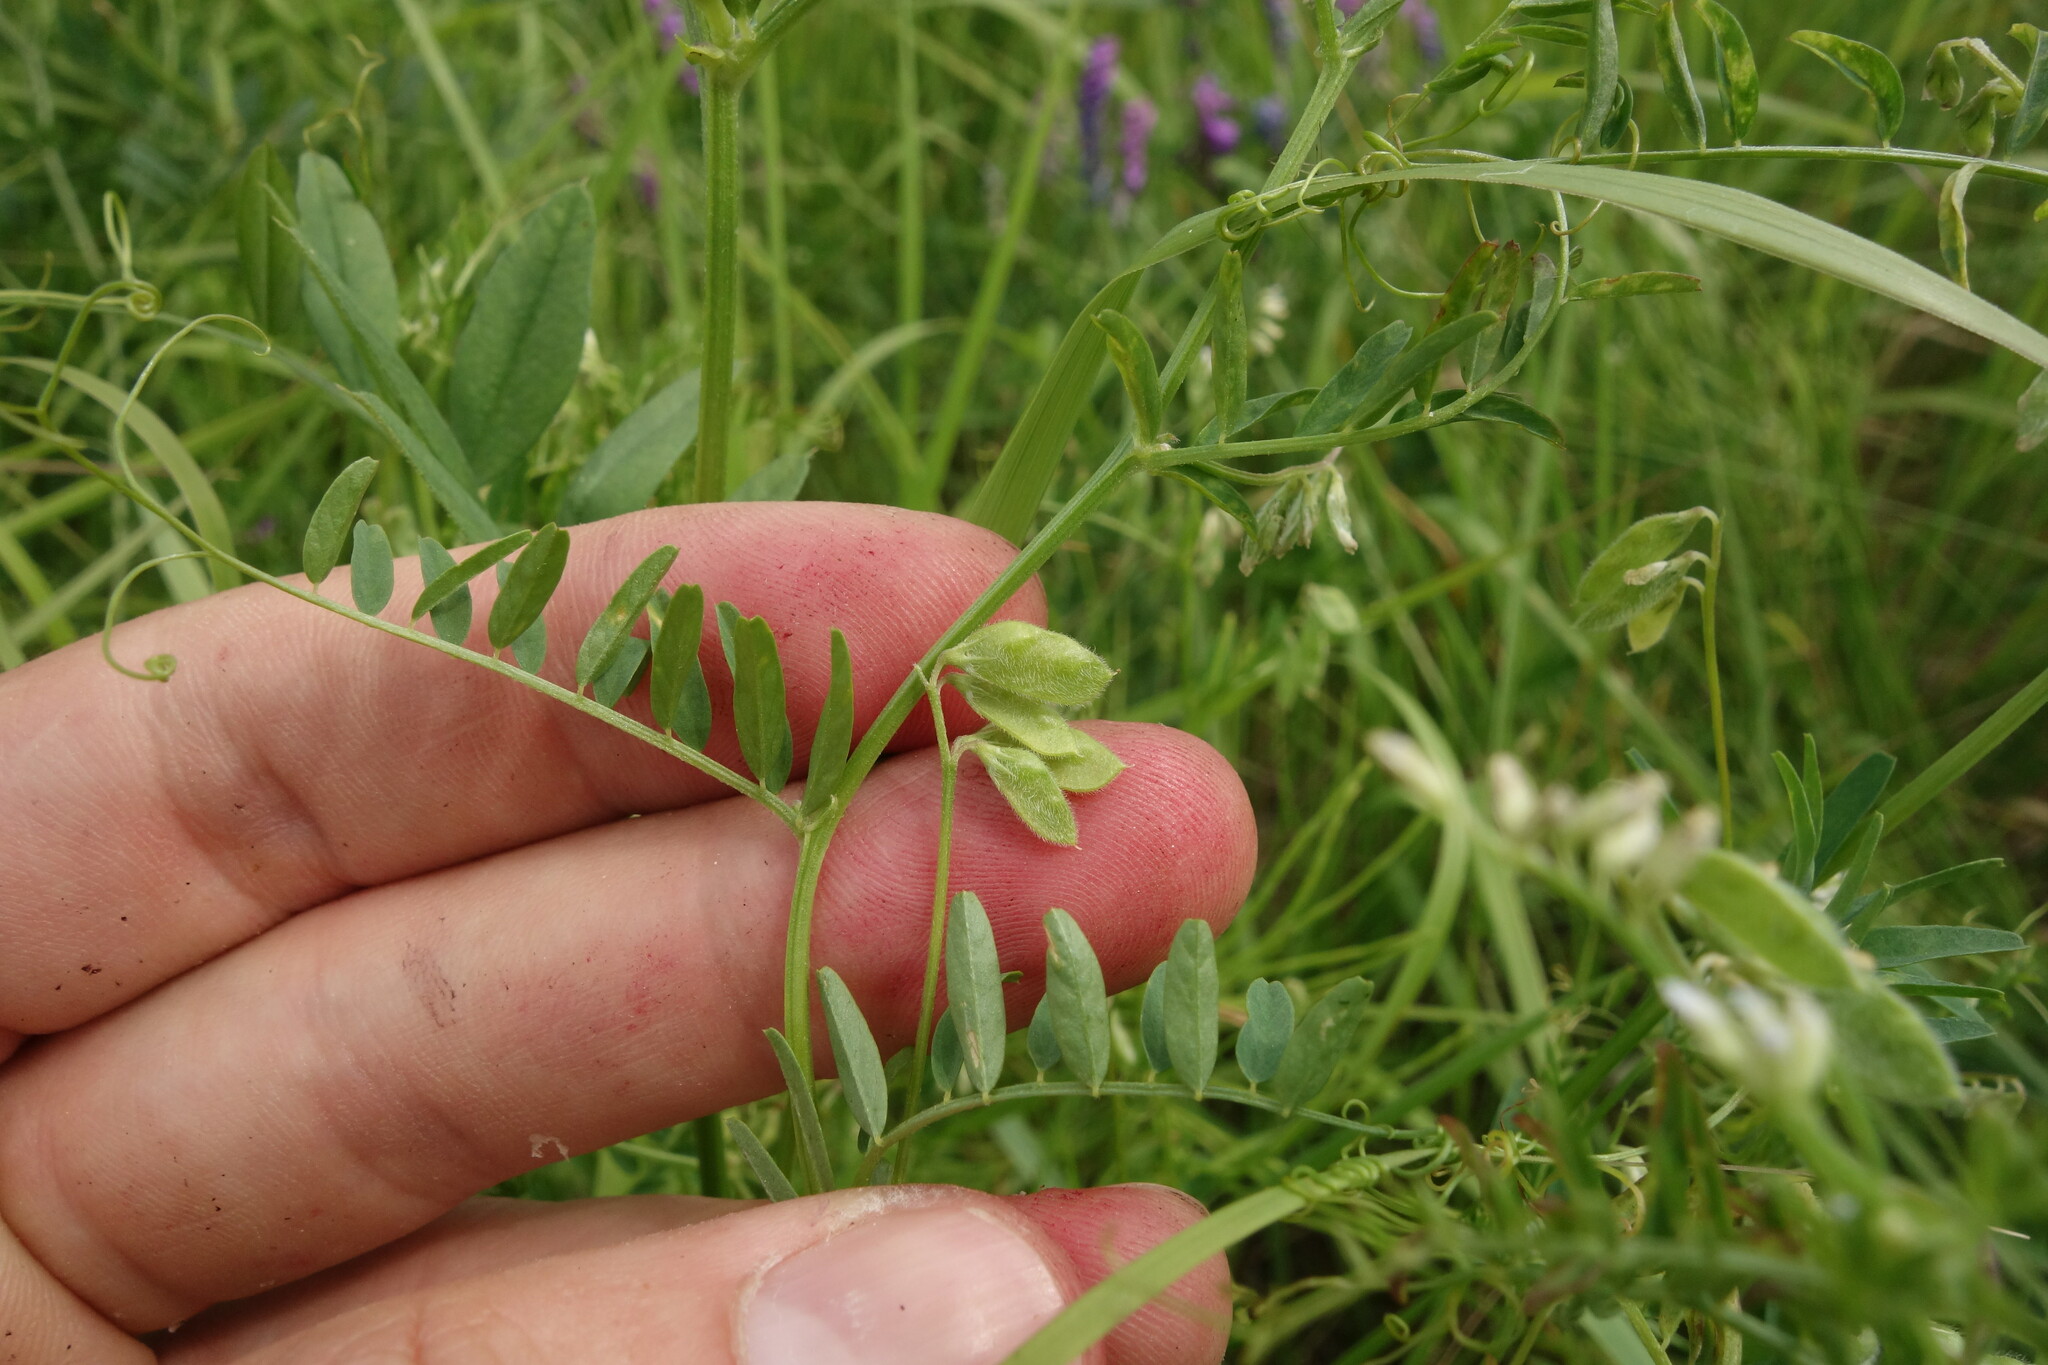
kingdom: Plantae
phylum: Tracheophyta
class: Magnoliopsida
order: Fabales
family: Fabaceae
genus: Vicia
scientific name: Vicia hirsuta
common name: Tiny vetch
